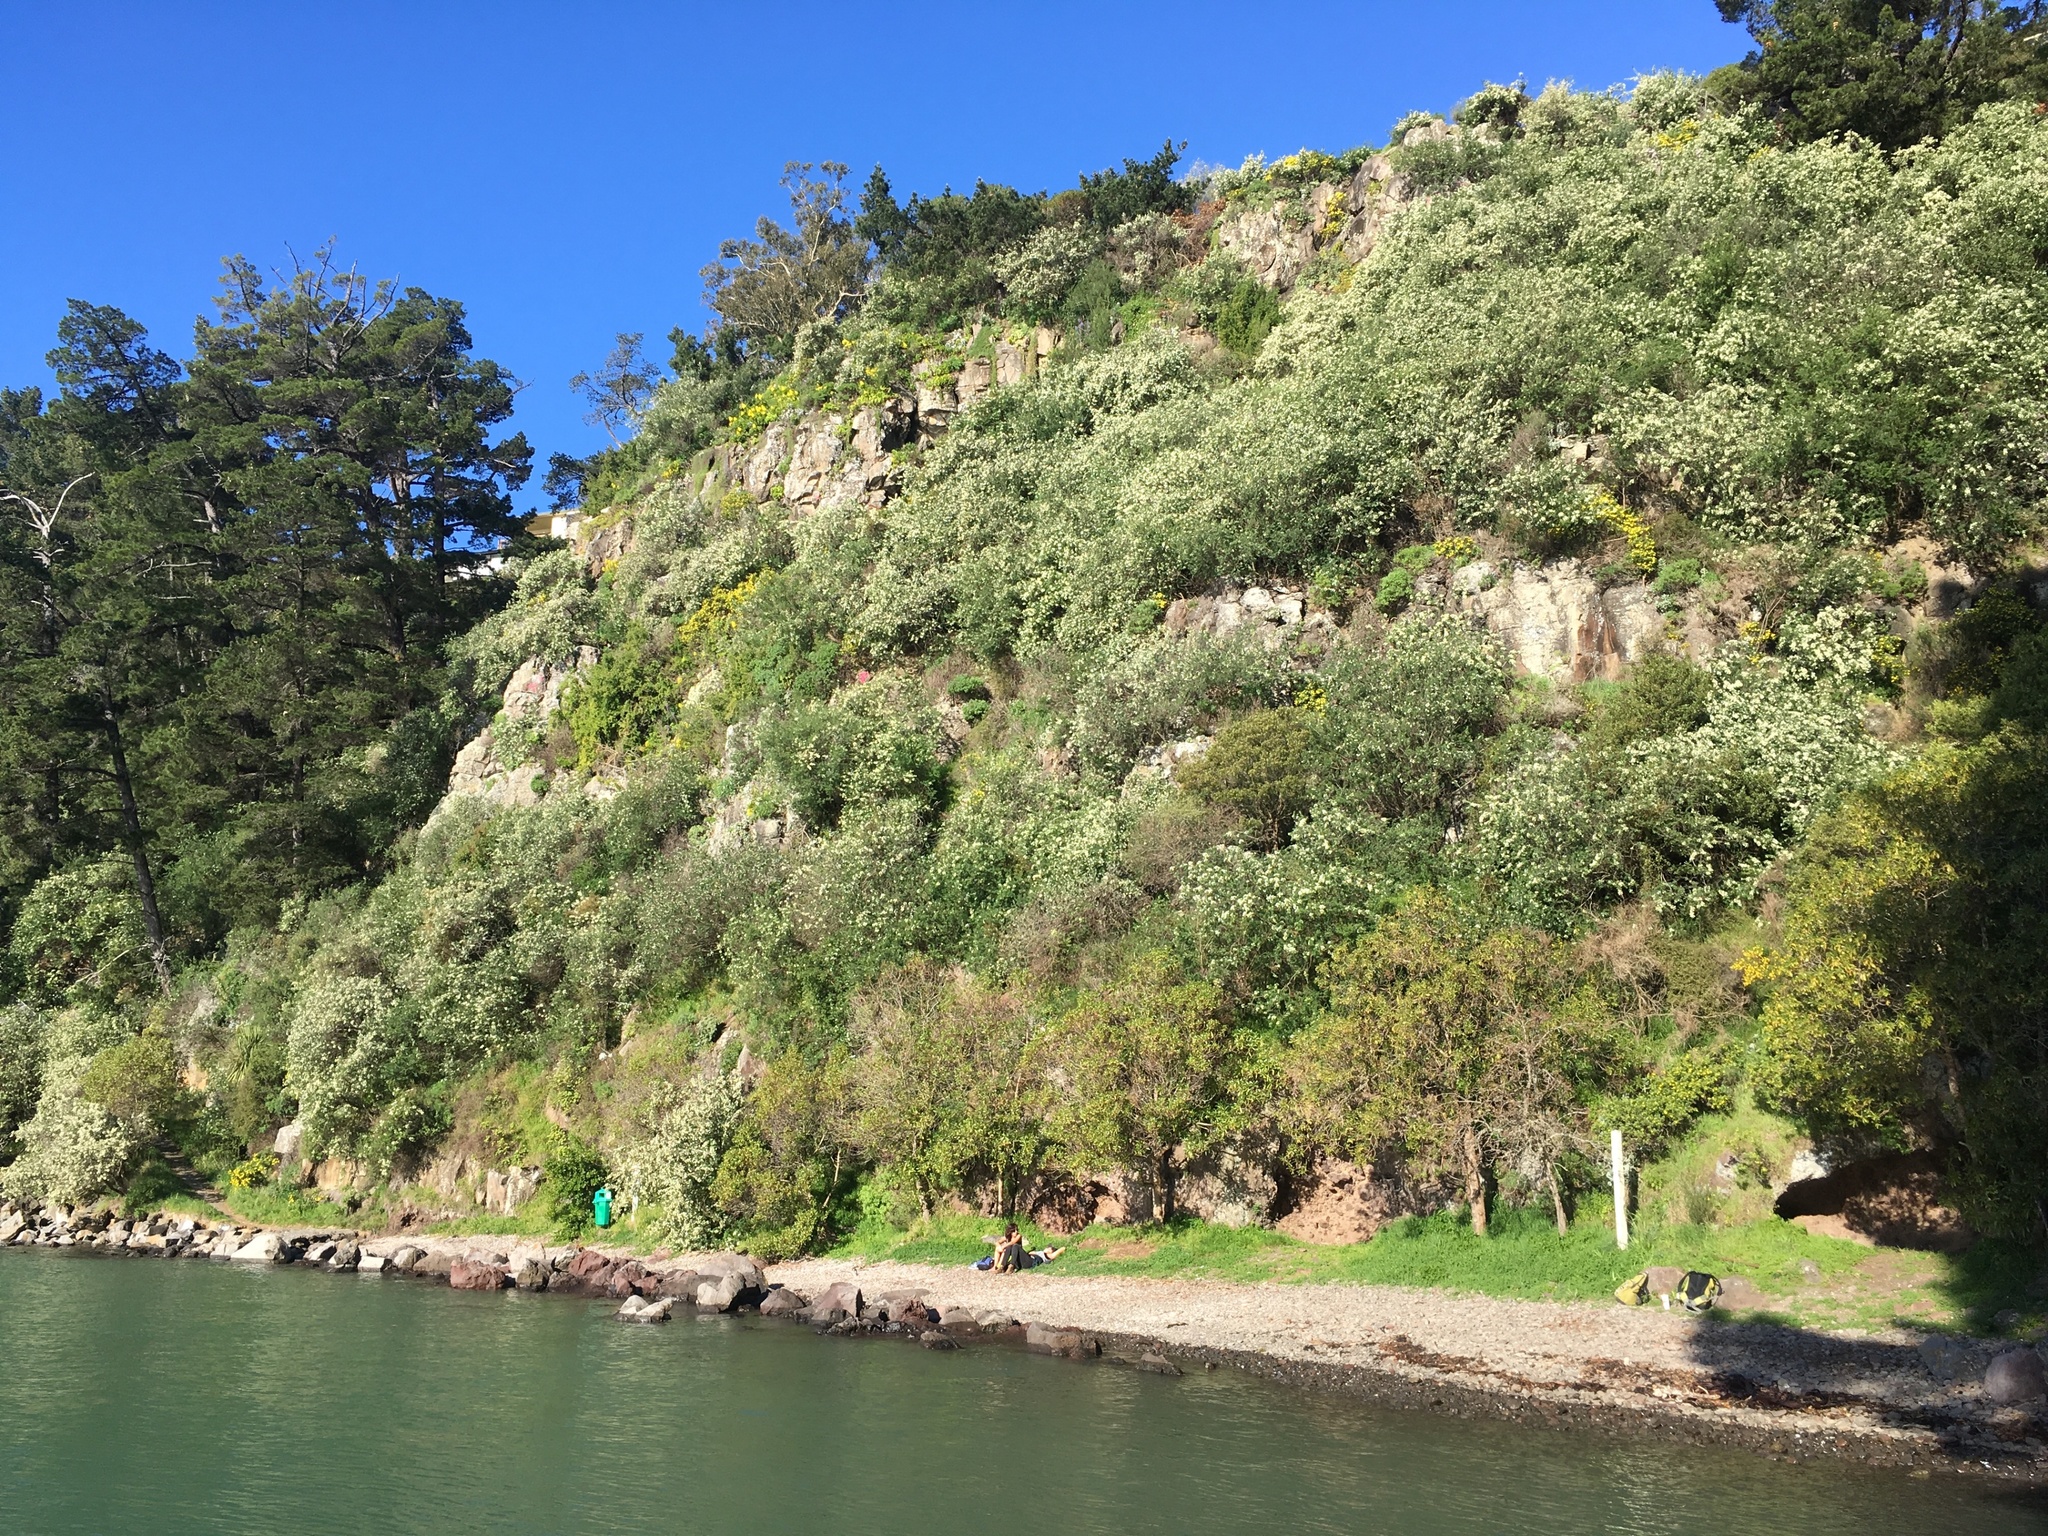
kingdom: Plantae
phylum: Tracheophyta
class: Magnoliopsida
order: Fabales
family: Fabaceae
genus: Chamaecytisus
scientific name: Chamaecytisus prolifer
